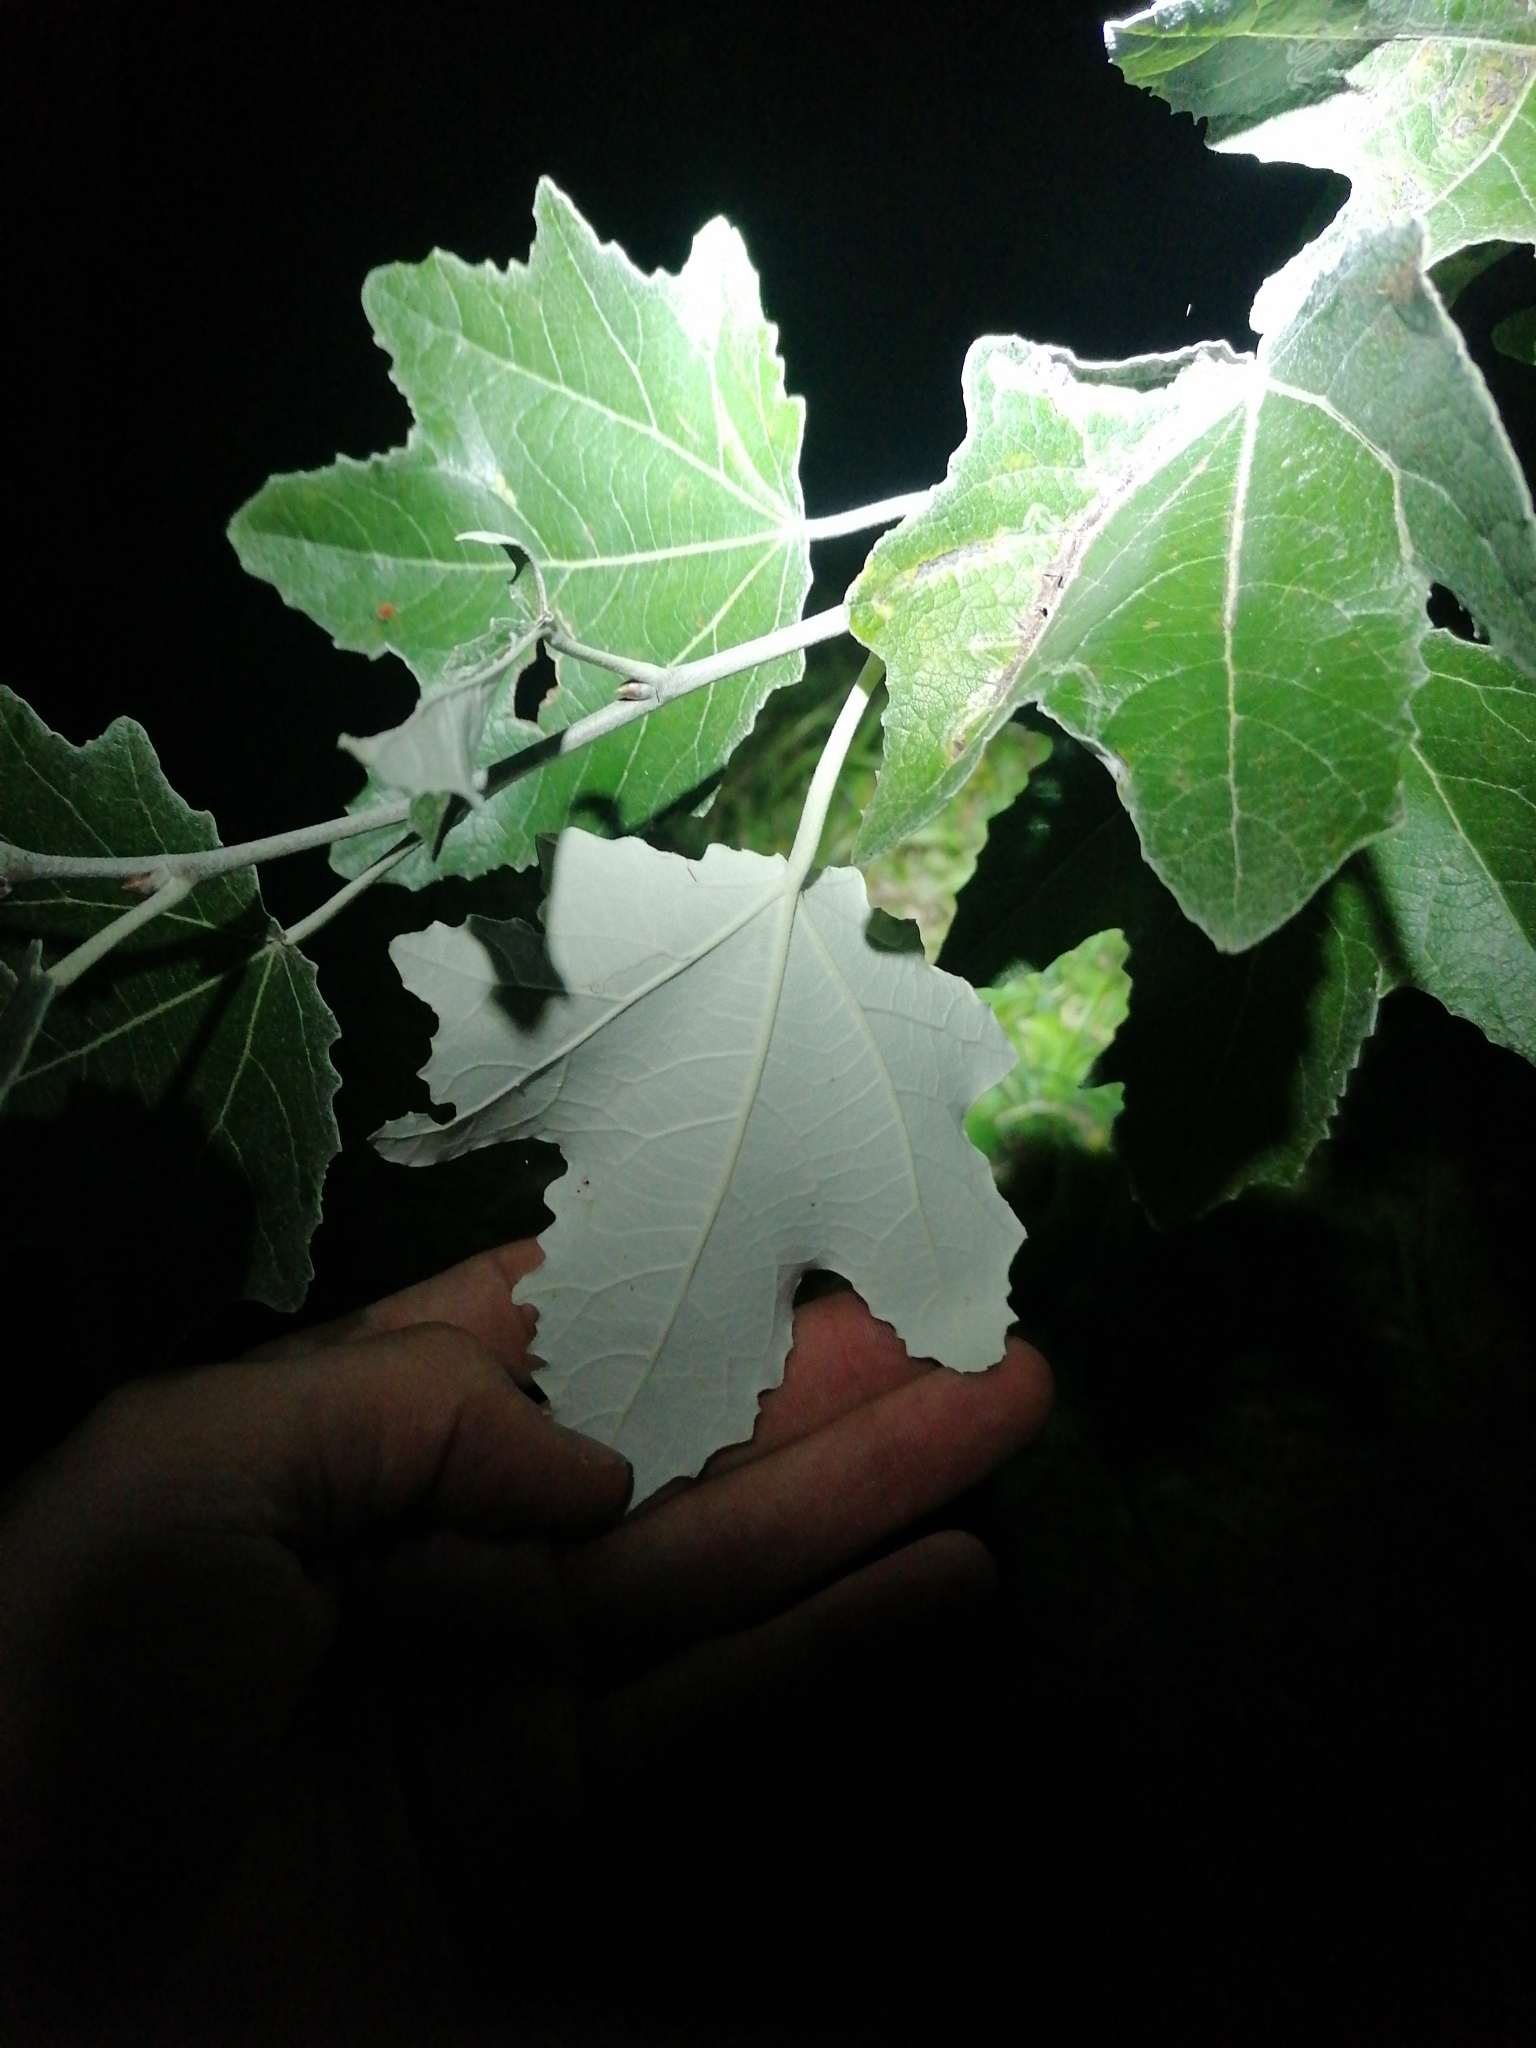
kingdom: Plantae
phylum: Tracheophyta
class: Magnoliopsida
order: Malpighiales
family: Salicaceae
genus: Populus
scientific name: Populus alba
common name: White poplar
